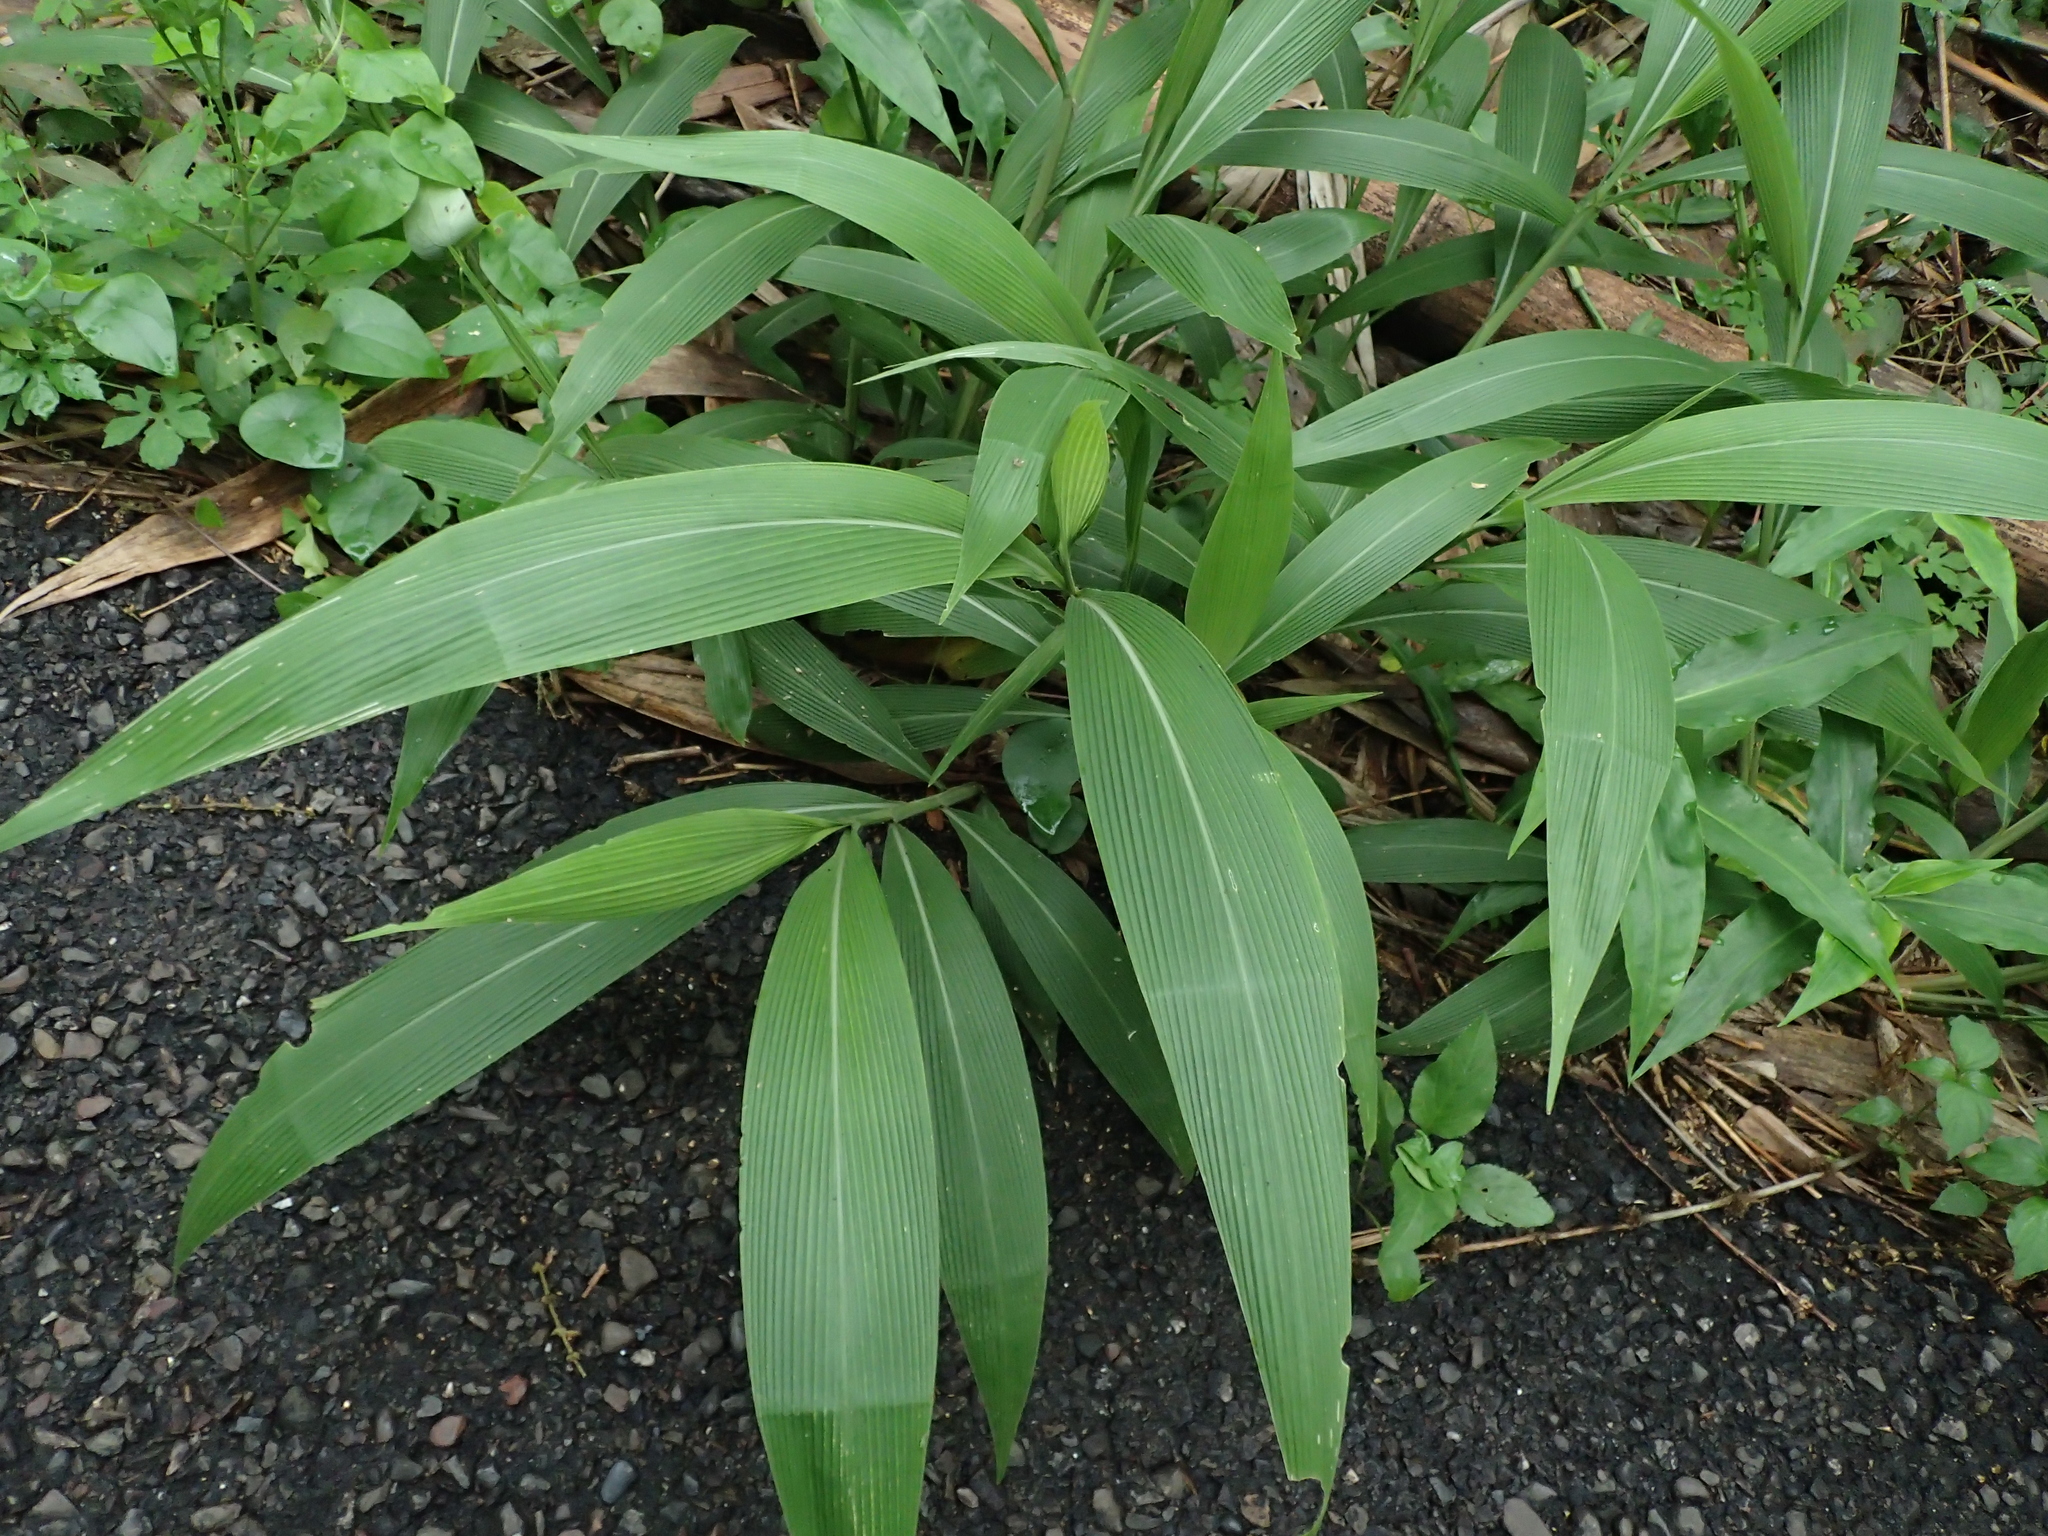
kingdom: Plantae
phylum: Tracheophyta
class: Liliopsida
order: Poales
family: Poaceae
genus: Setaria
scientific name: Setaria palmifolia
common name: Broadleaved bristlegrass
